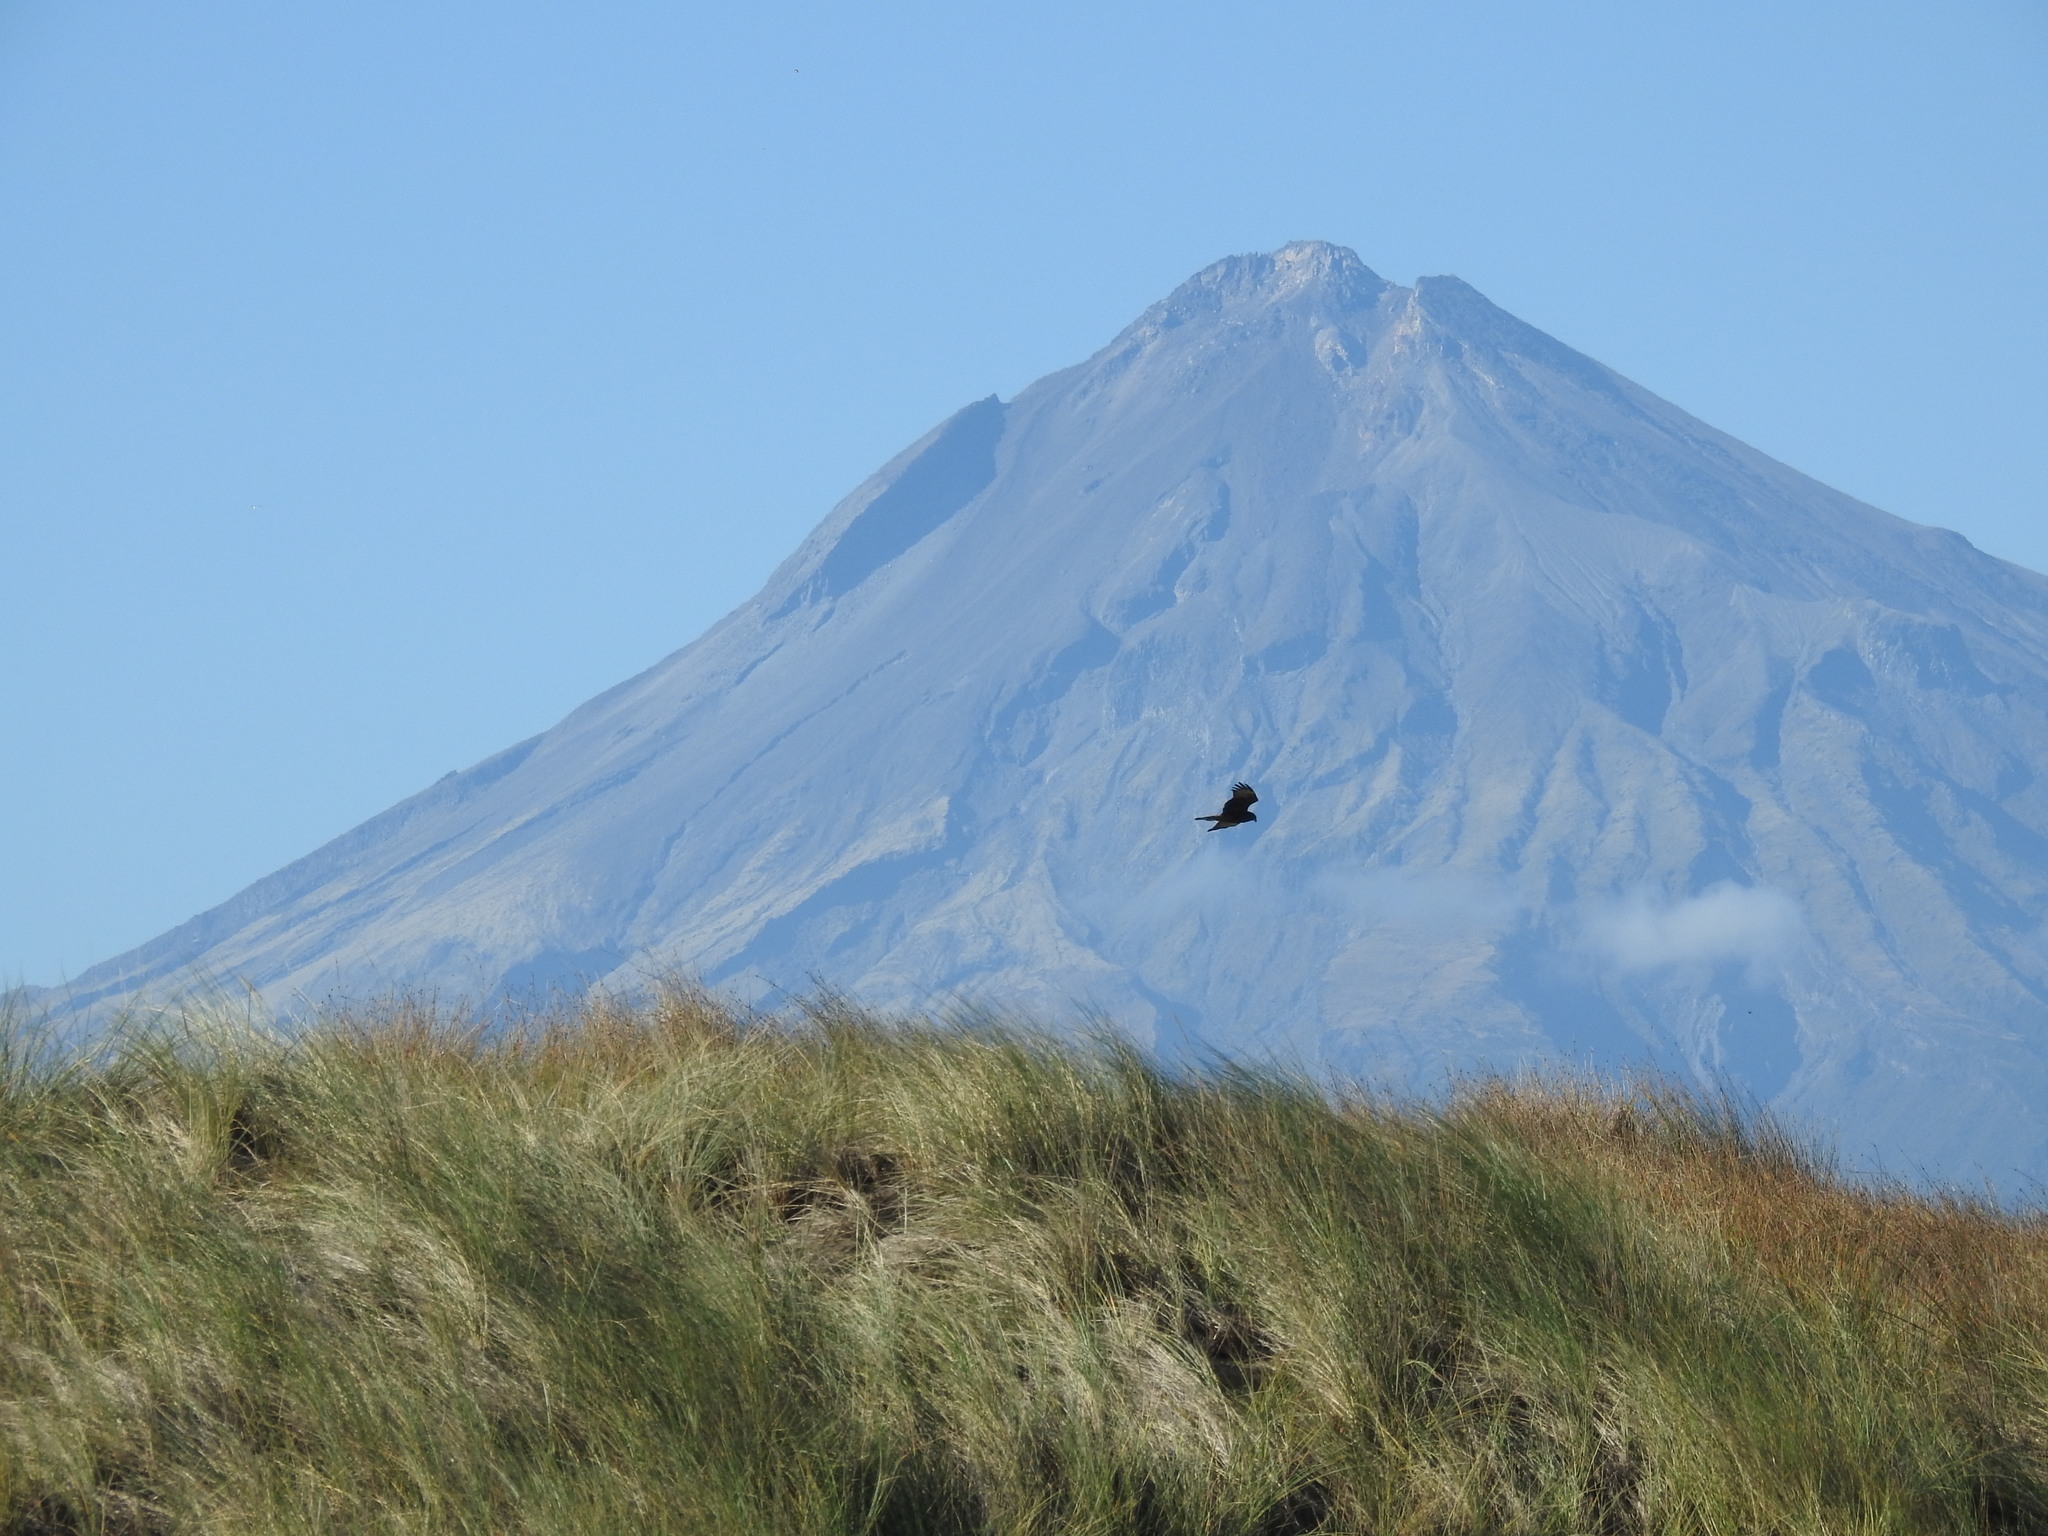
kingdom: Animalia
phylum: Chordata
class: Aves
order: Accipitriformes
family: Accipitridae
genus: Circus
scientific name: Circus approximans
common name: Swamp harrier
